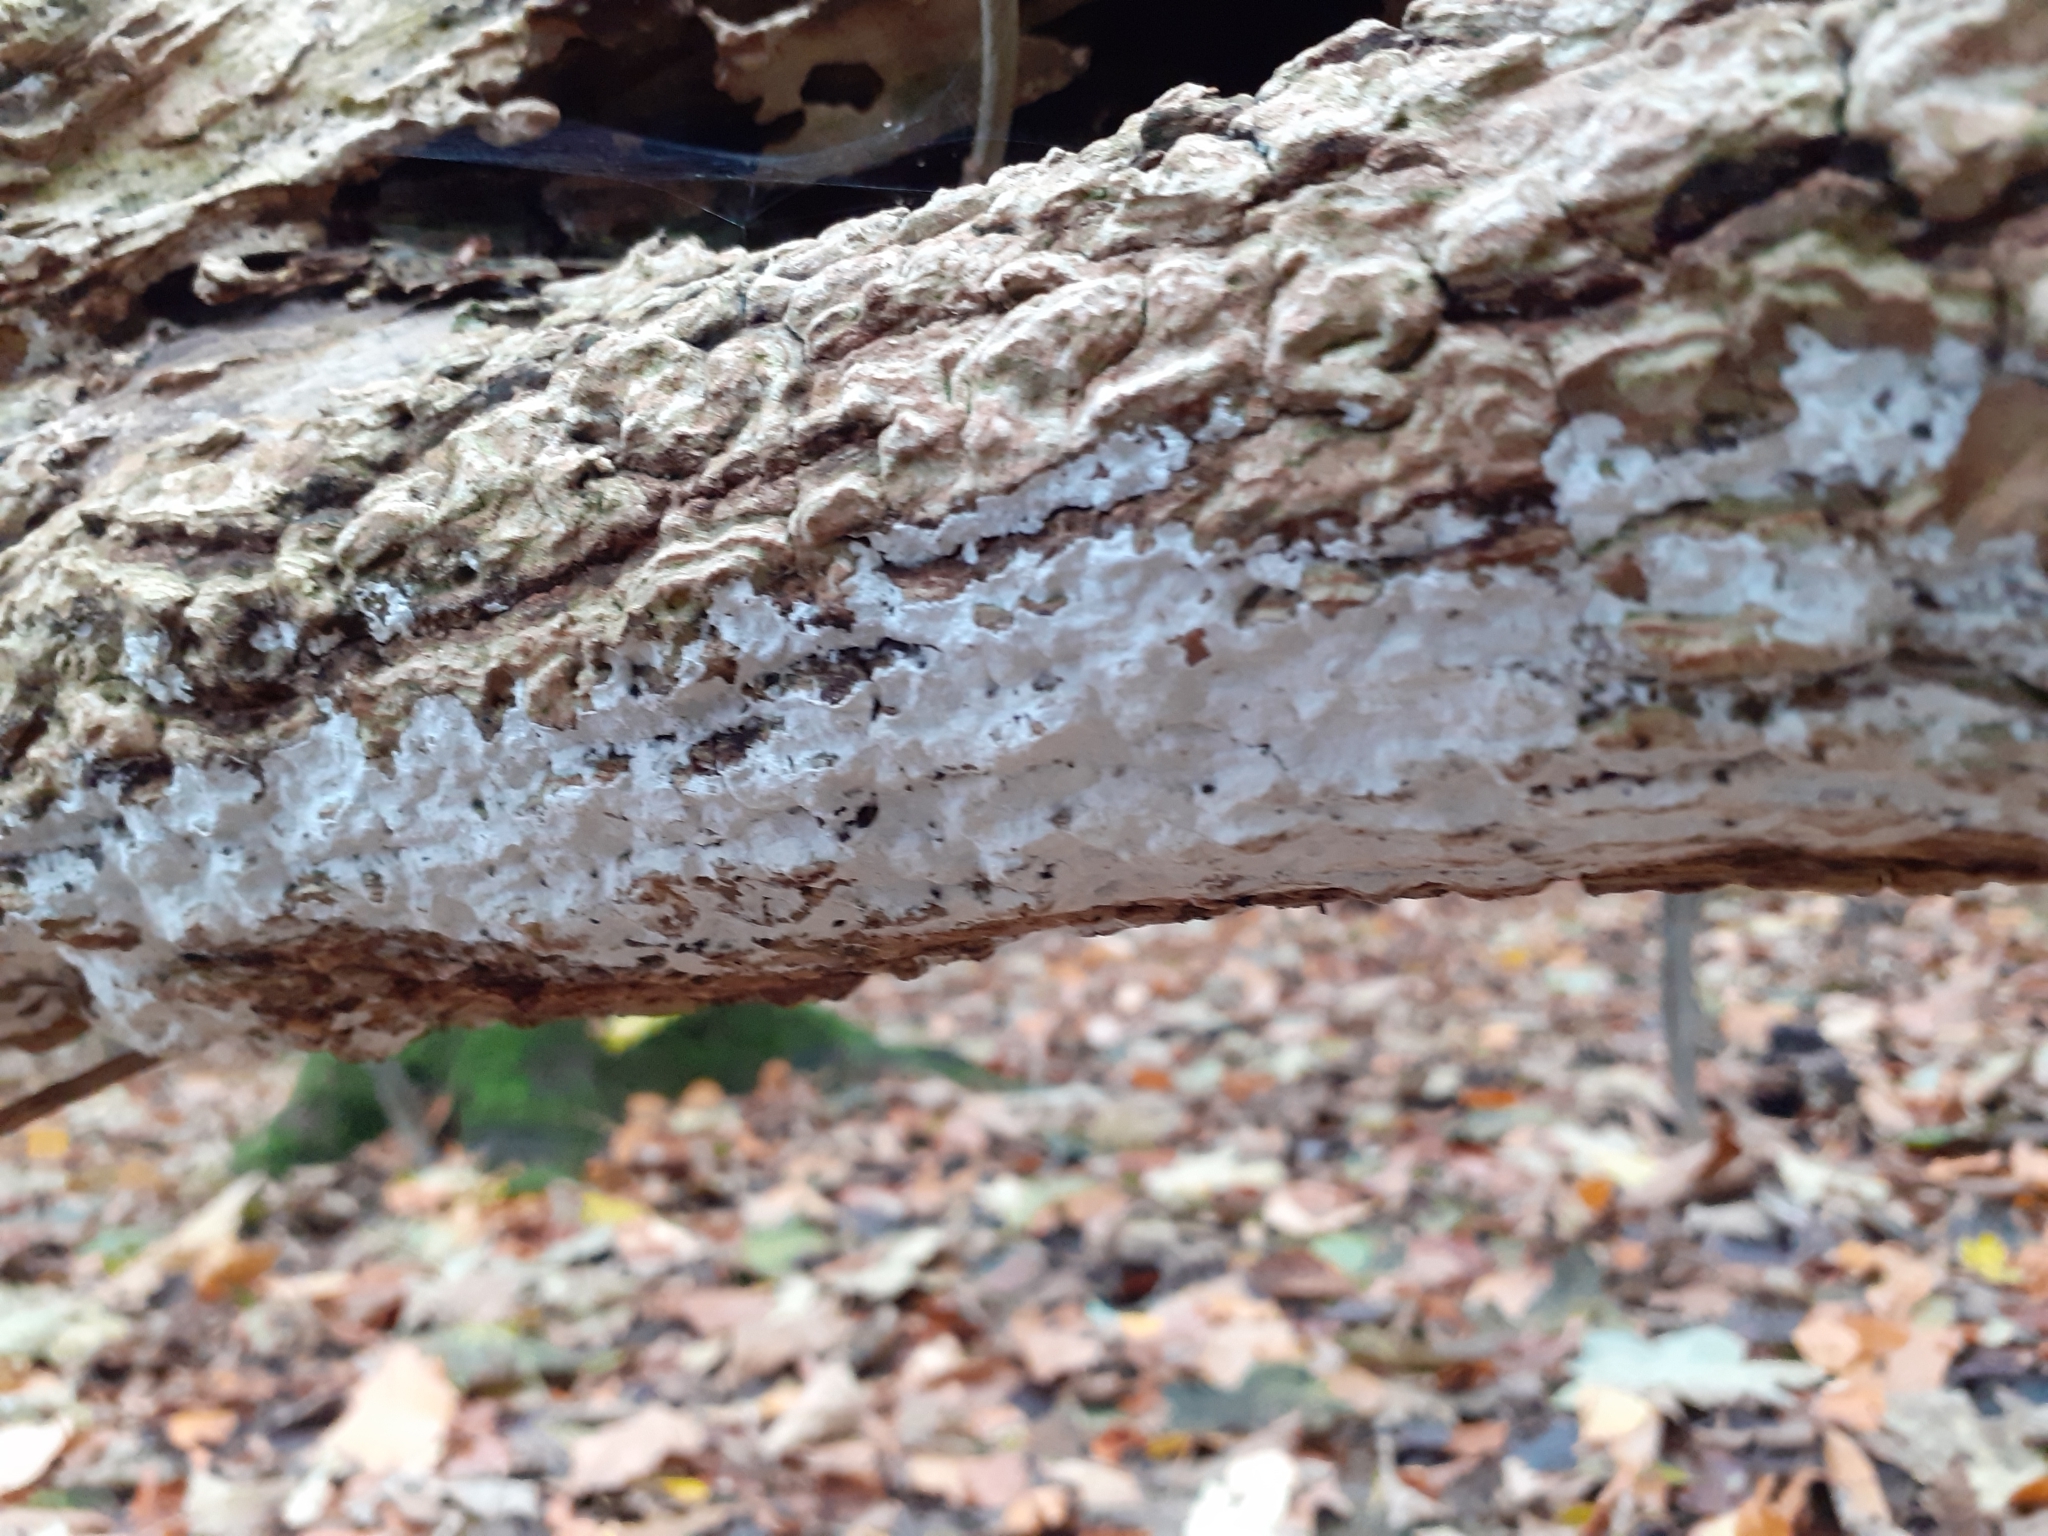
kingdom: Fungi
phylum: Basidiomycota
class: Agaricomycetes
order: Corticiales
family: Corticiaceae
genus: Lyomyces
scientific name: Lyomyces sambuci
